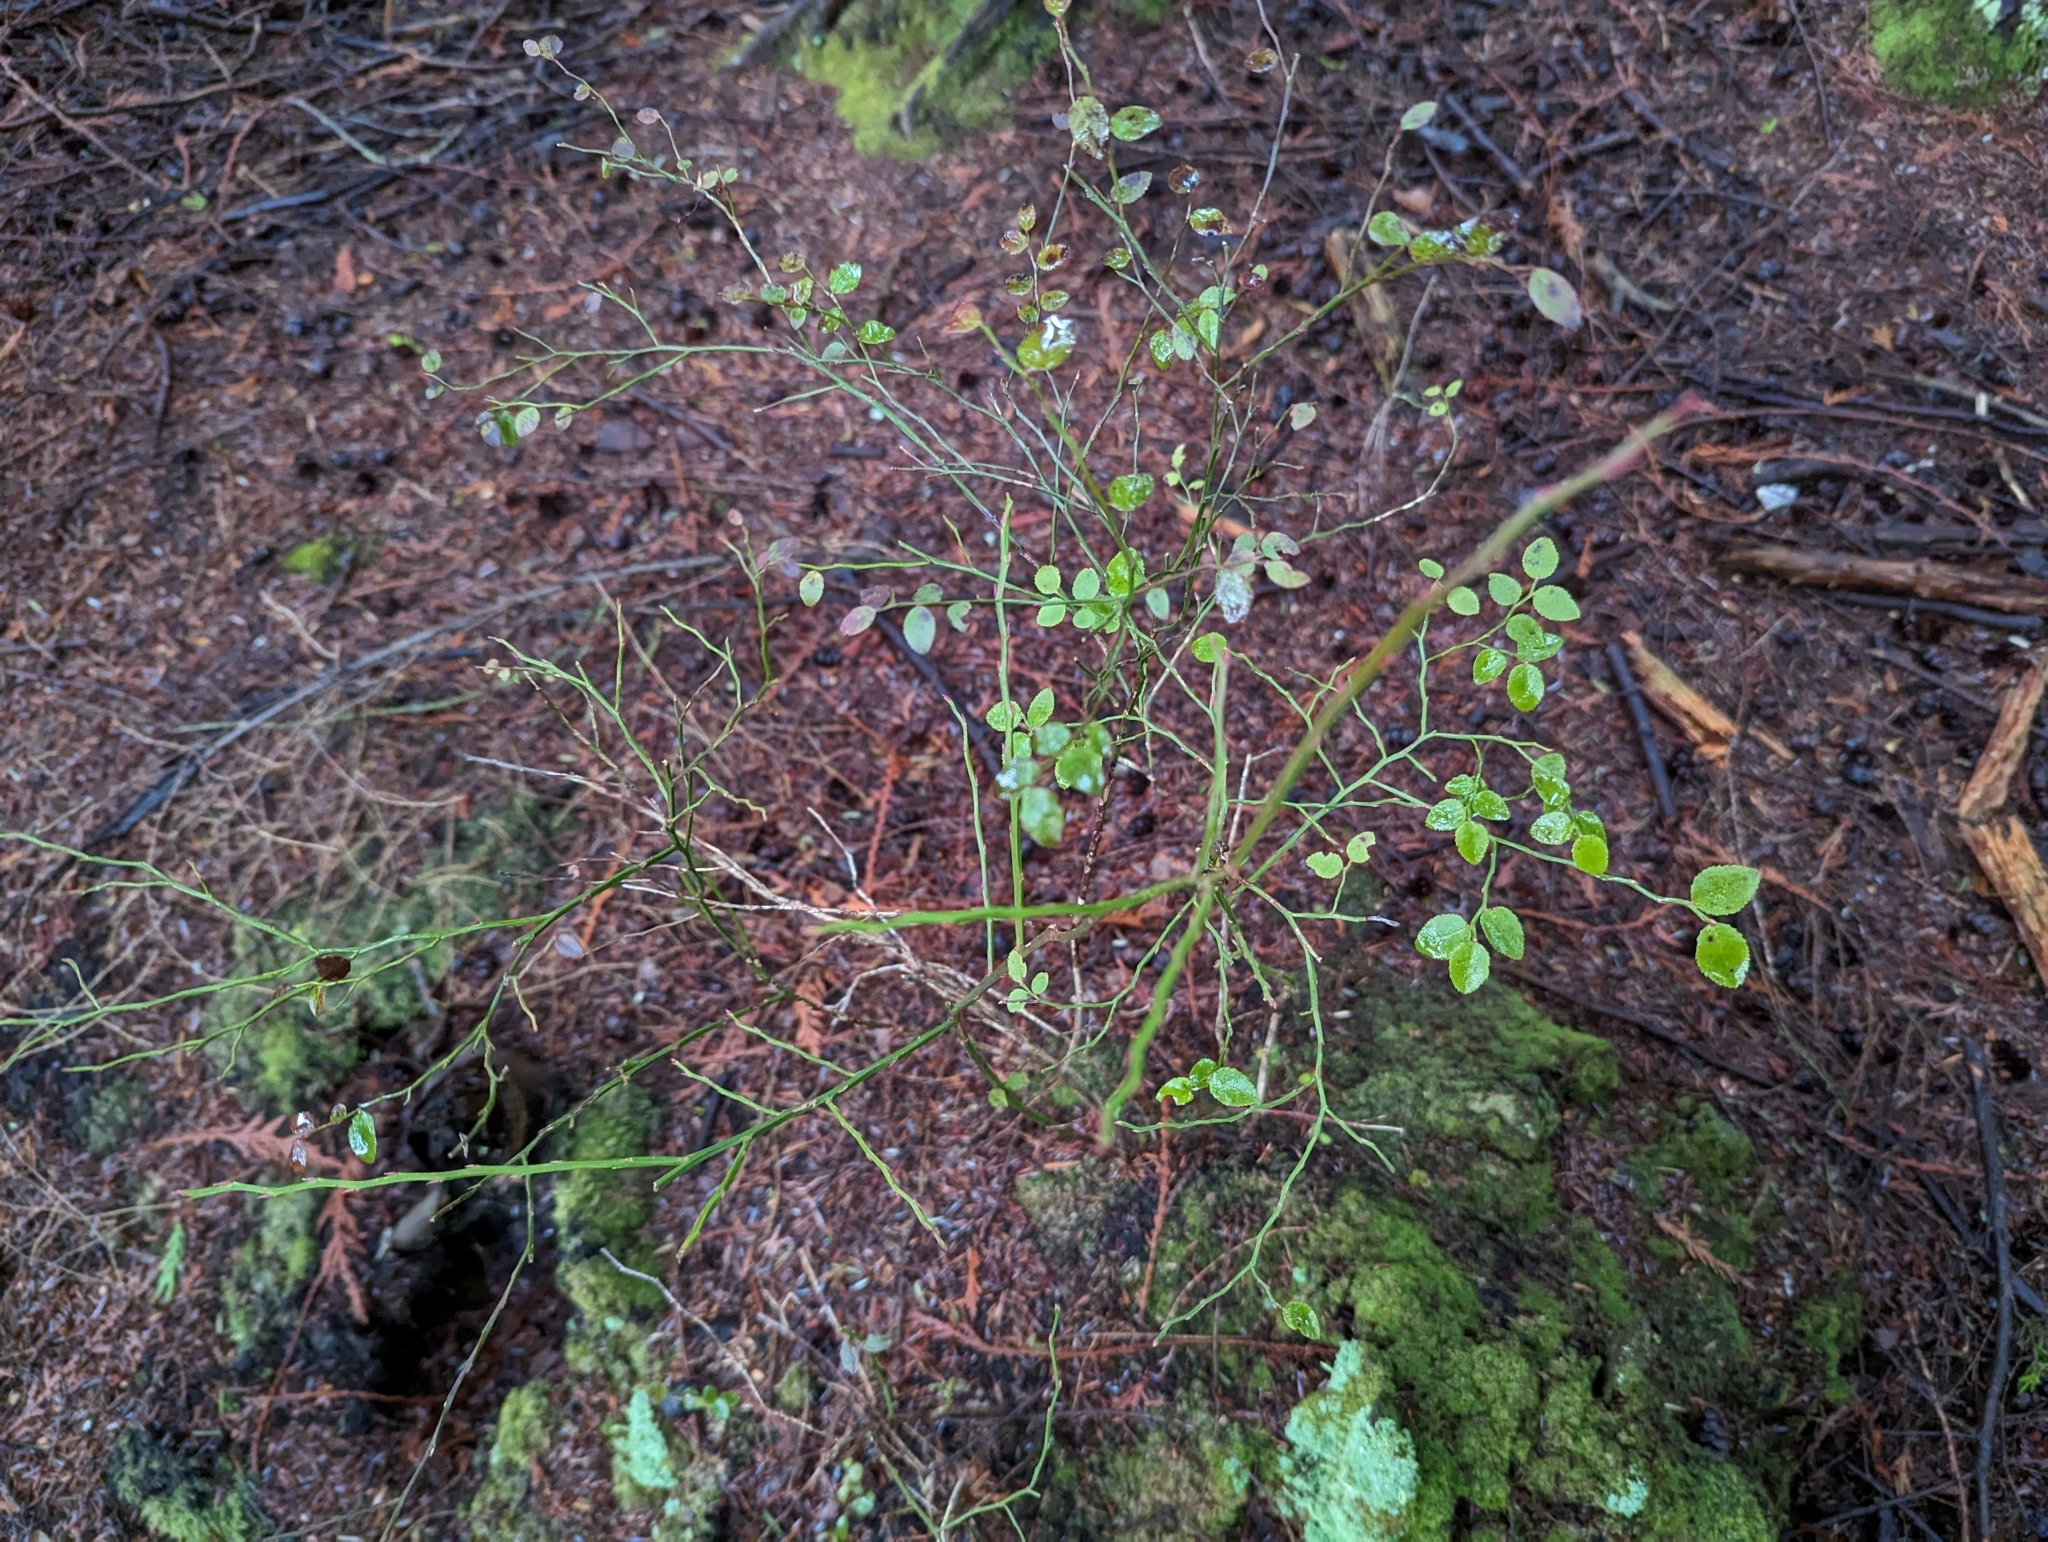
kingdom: Plantae
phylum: Tracheophyta
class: Magnoliopsida
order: Ericales
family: Ericaceae
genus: Vaccinium
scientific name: Vaccinium parvifolium
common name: Red-huckleberry
